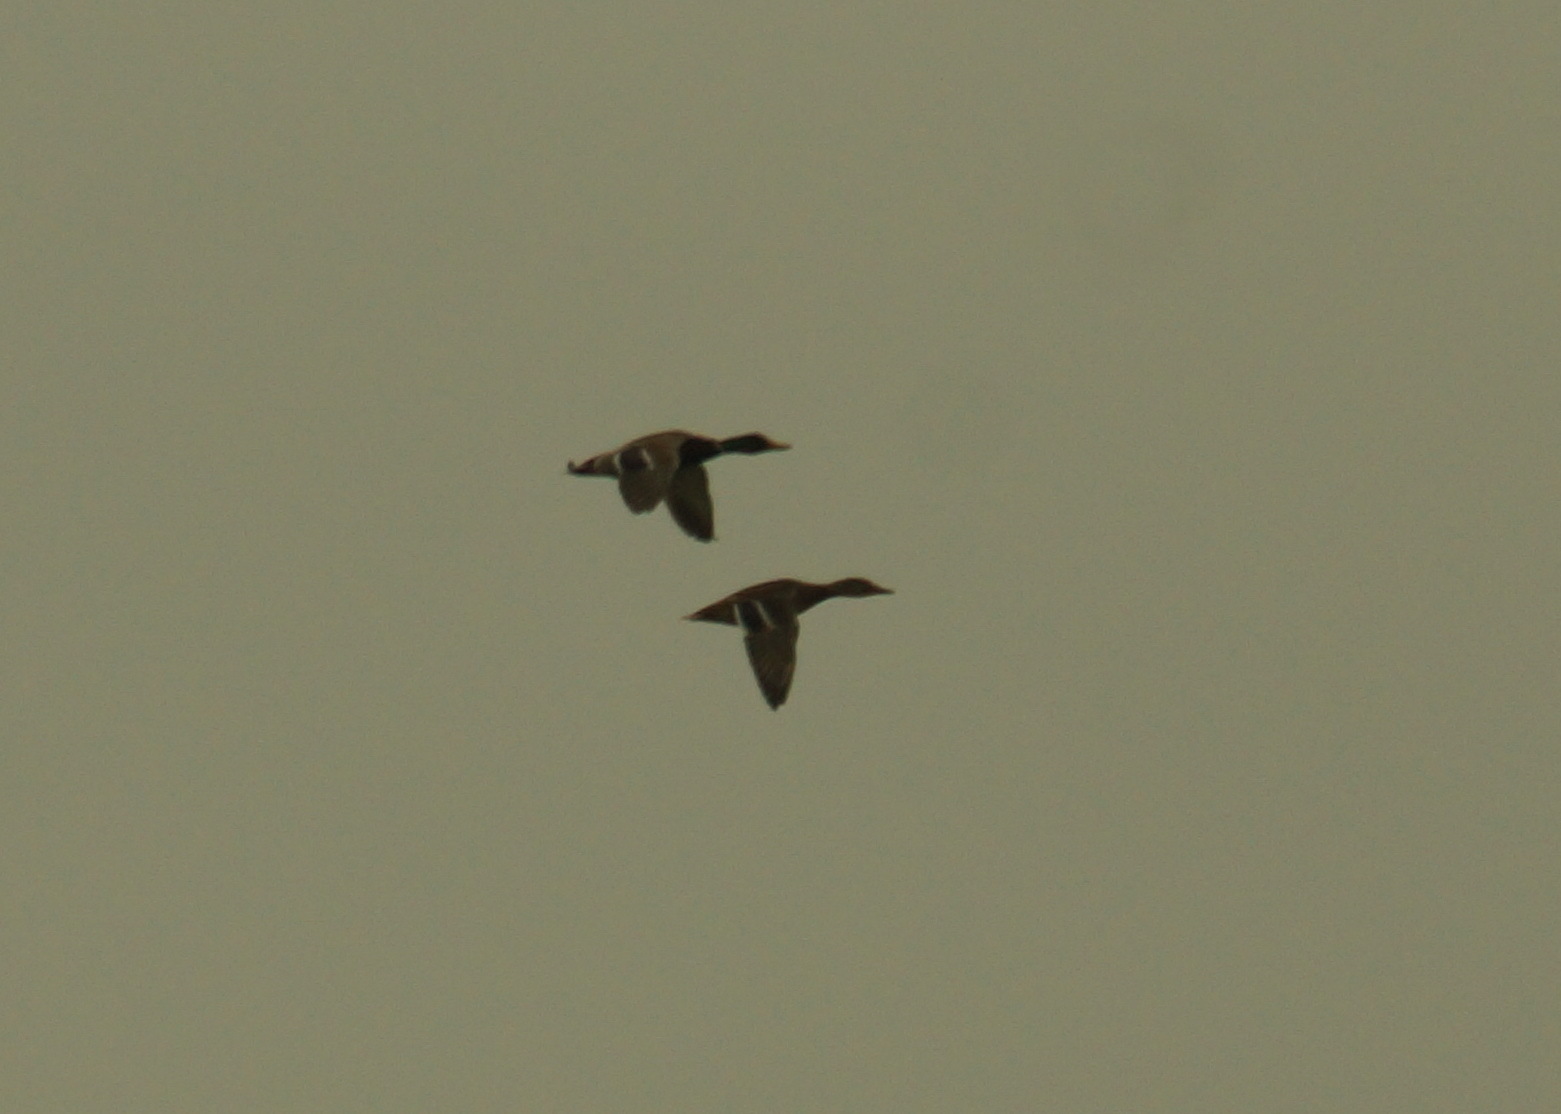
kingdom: Animalia
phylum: Chordata
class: Aves
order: Anseriformes
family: Anatidae
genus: Anas
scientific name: Anas platyrhynchos
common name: Mallard
